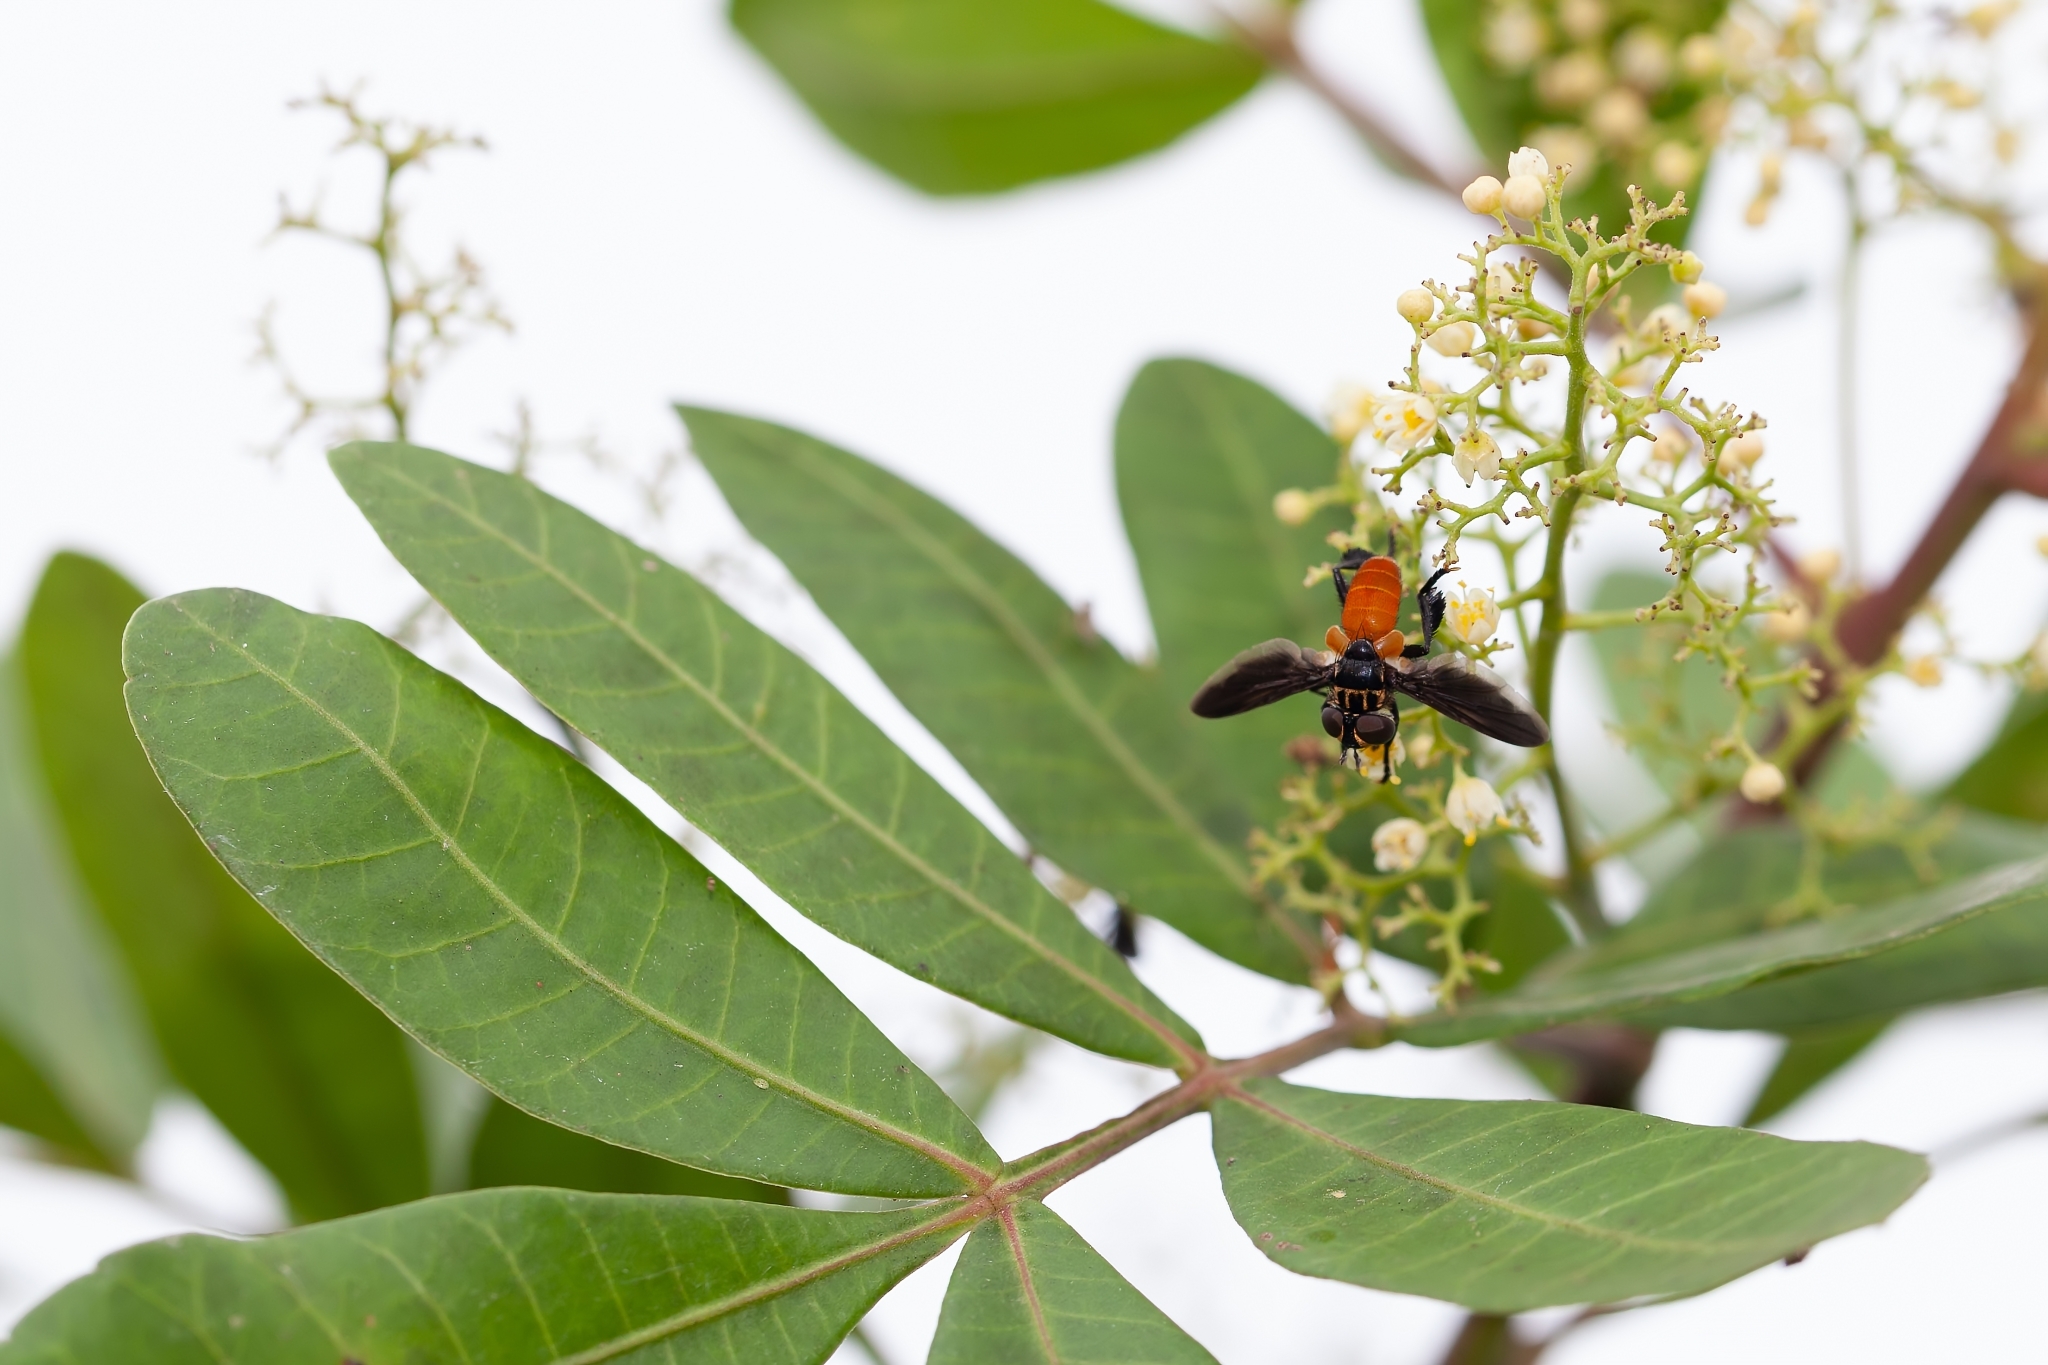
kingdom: Animalia
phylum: Arthropoda
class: Insecta
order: Diptera
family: Tachinidae
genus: Trichopoda
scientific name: Trichopoda pennipes
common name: Tachinid fly
